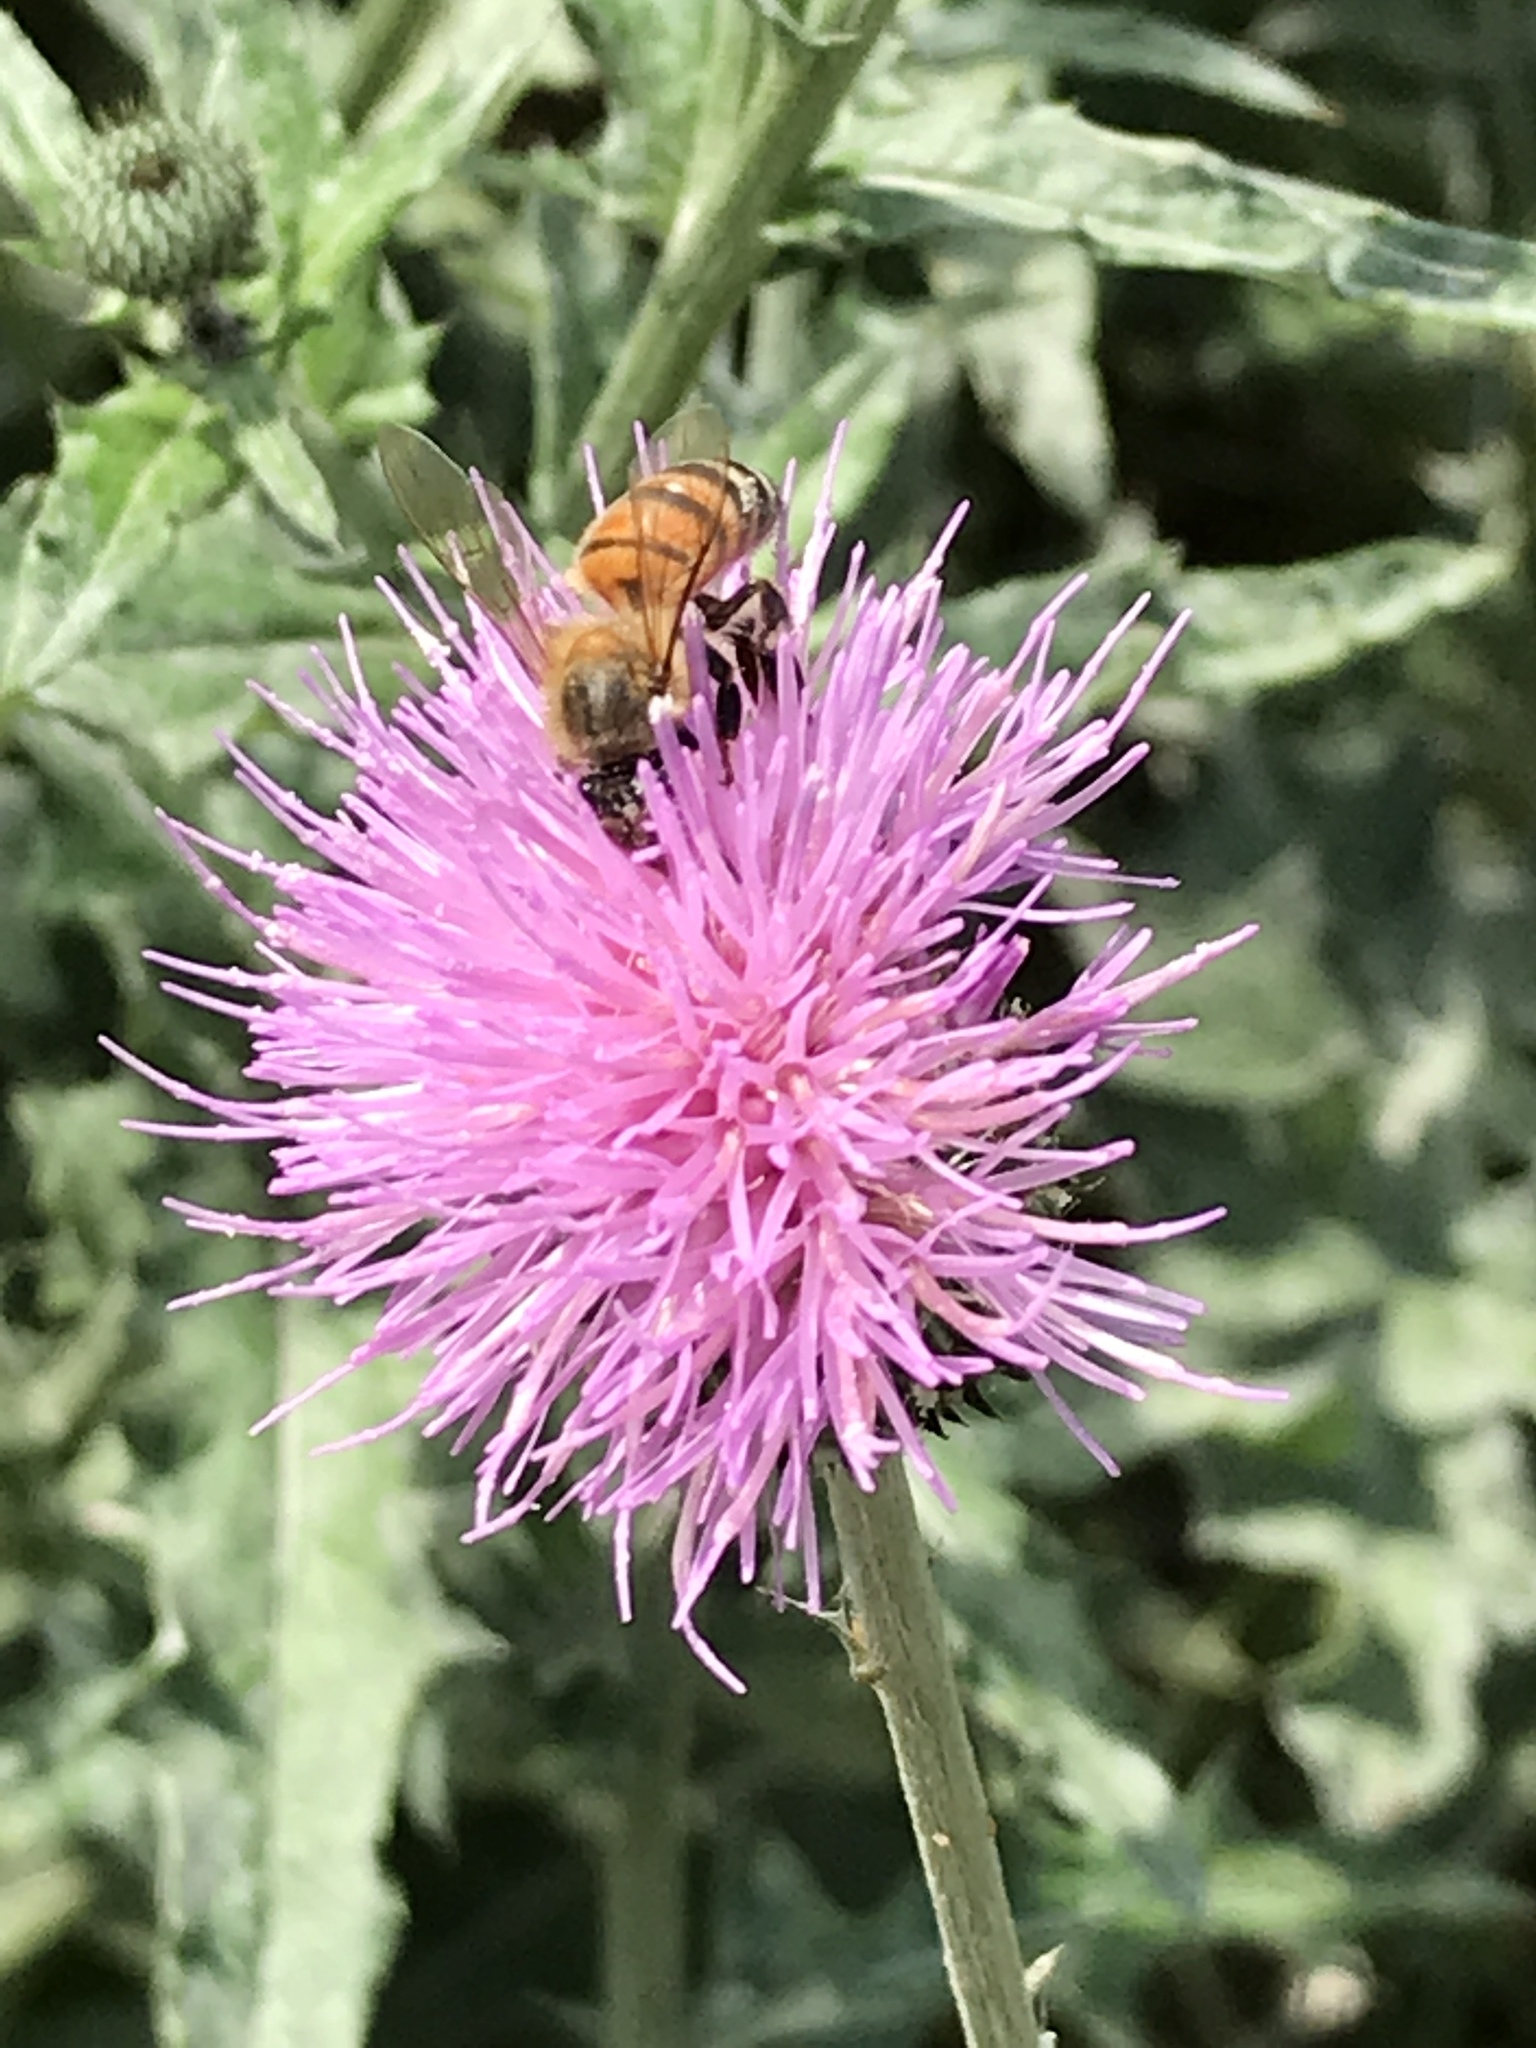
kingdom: Animalia
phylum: Arthropoda
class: Insecta
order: Hymenoptera
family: Apidae
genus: Apis
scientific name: Apis mellifera
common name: Honey bee
